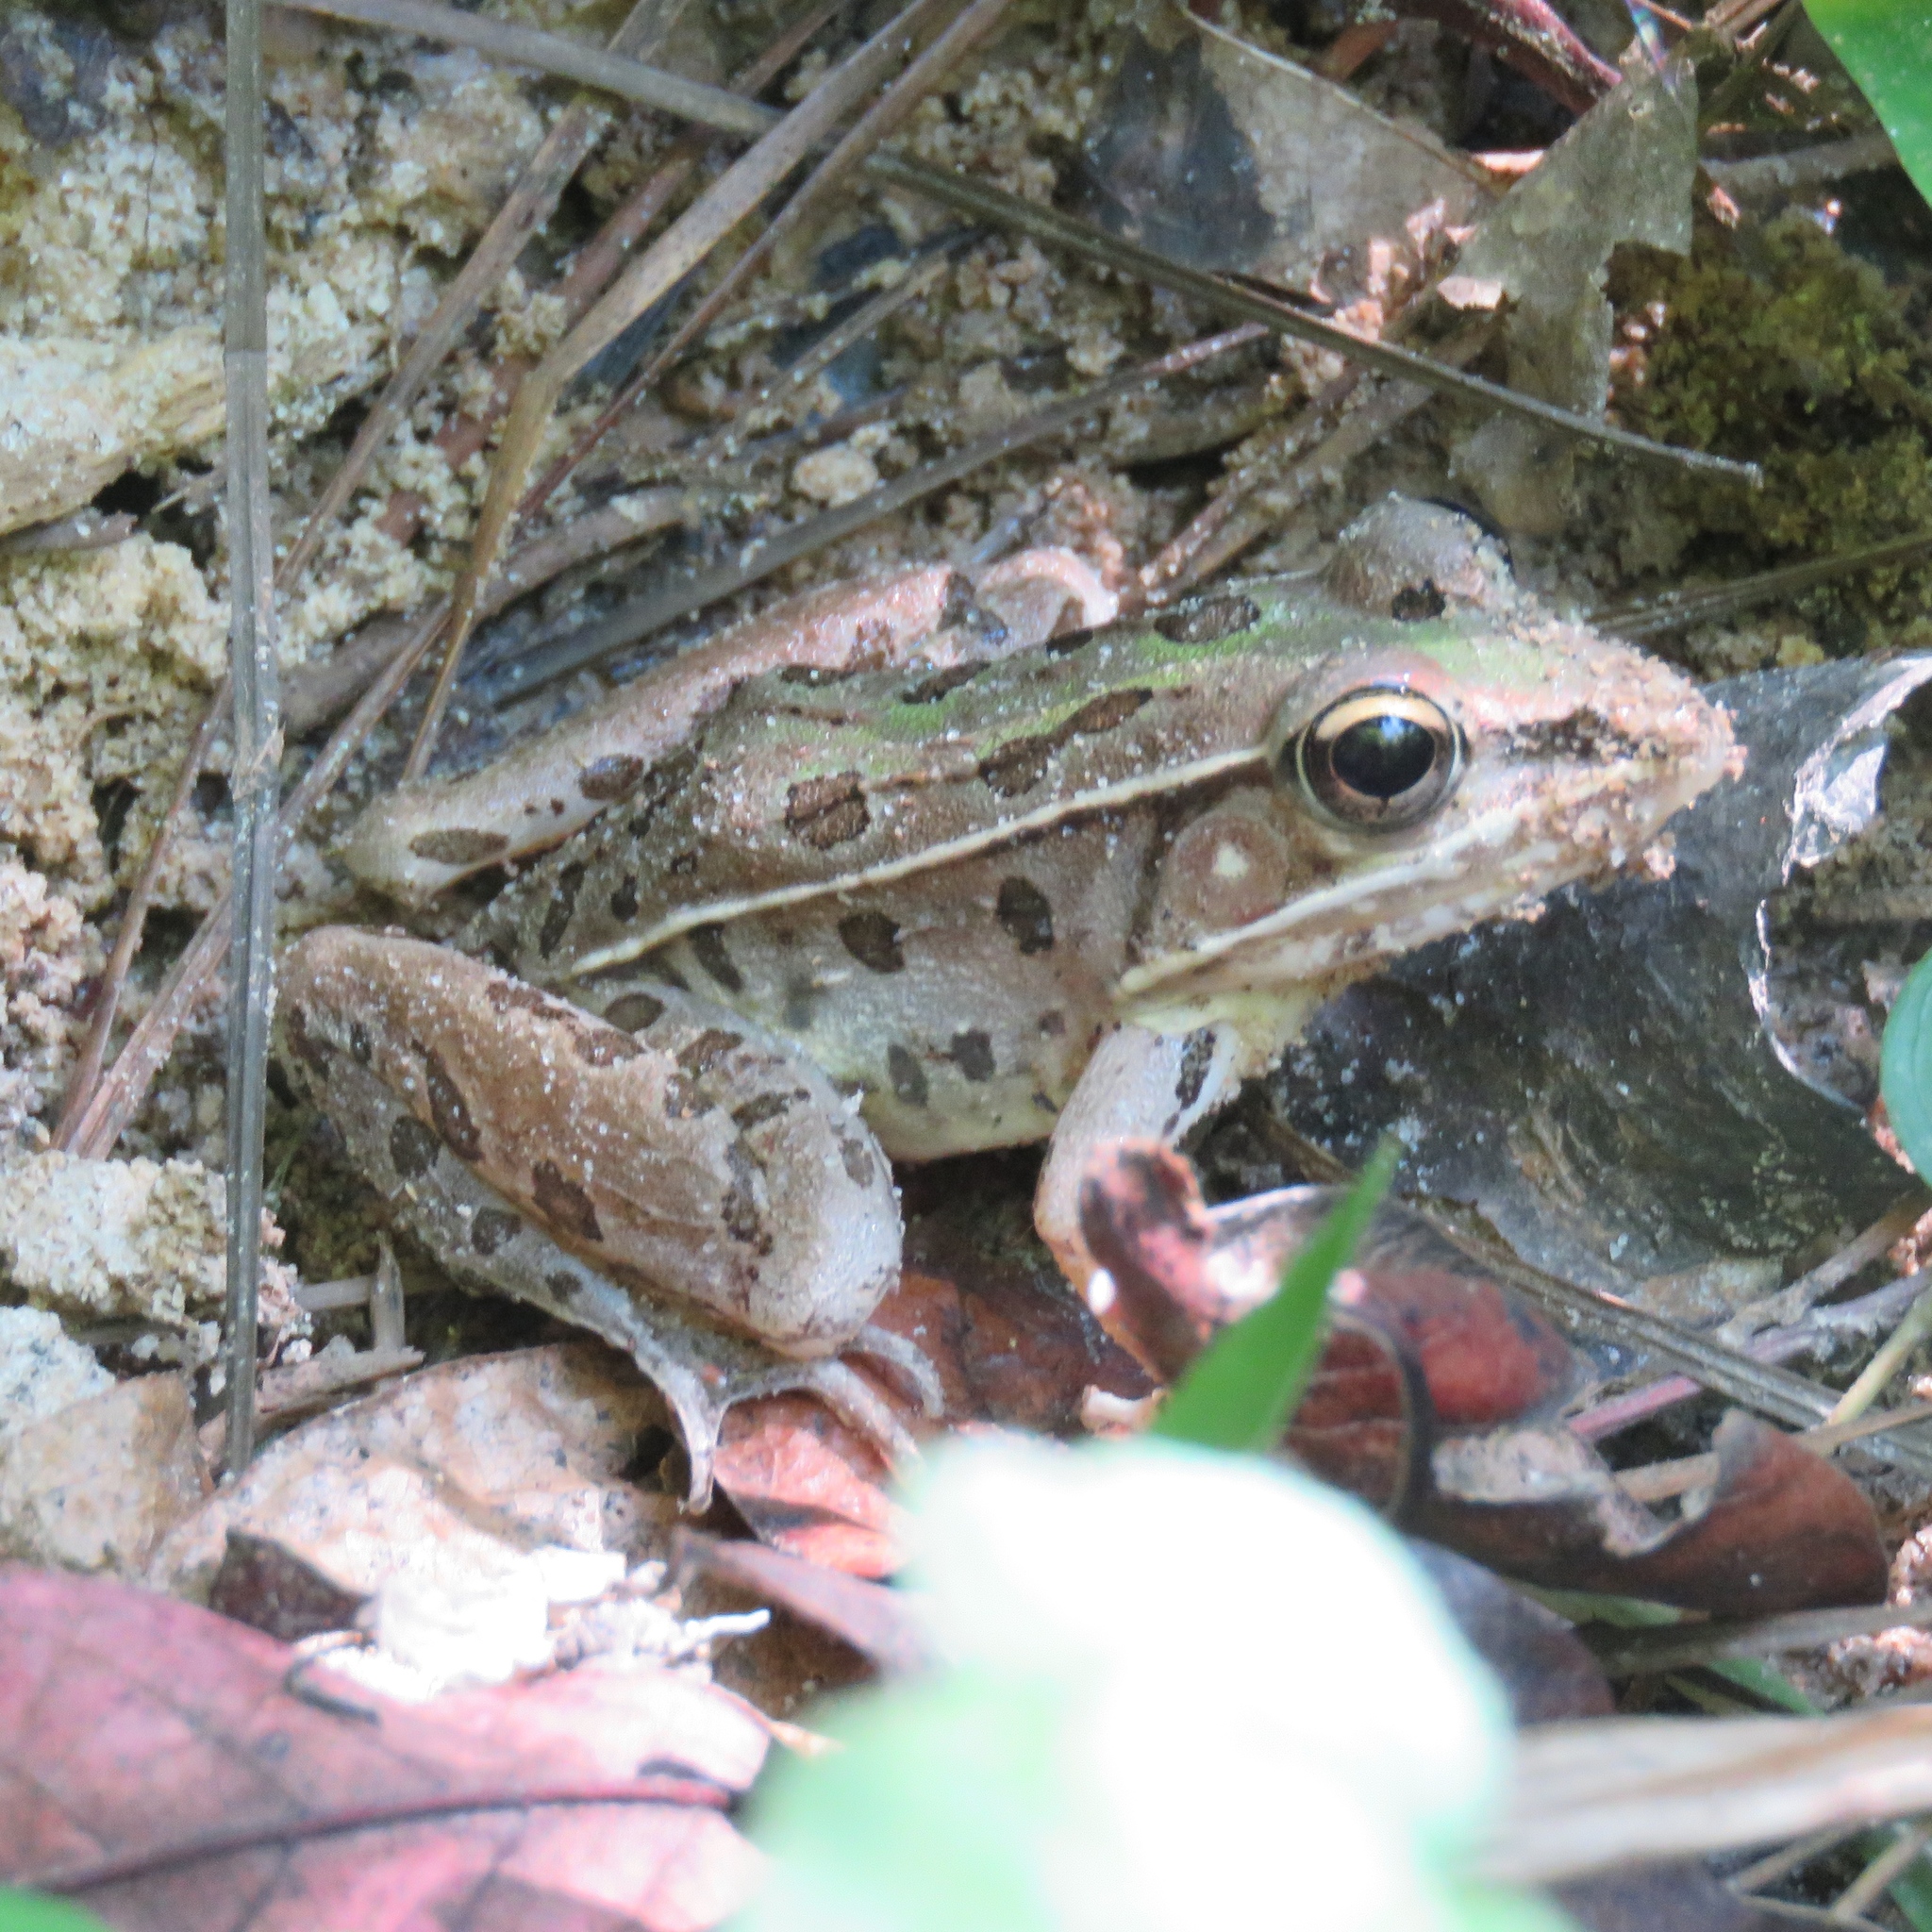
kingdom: Animalia
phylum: Chordata
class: Amphibia
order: Anura
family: Ranidae
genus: Lithobates
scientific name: Lithobates sphenocephalus
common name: Southern leopard frog
